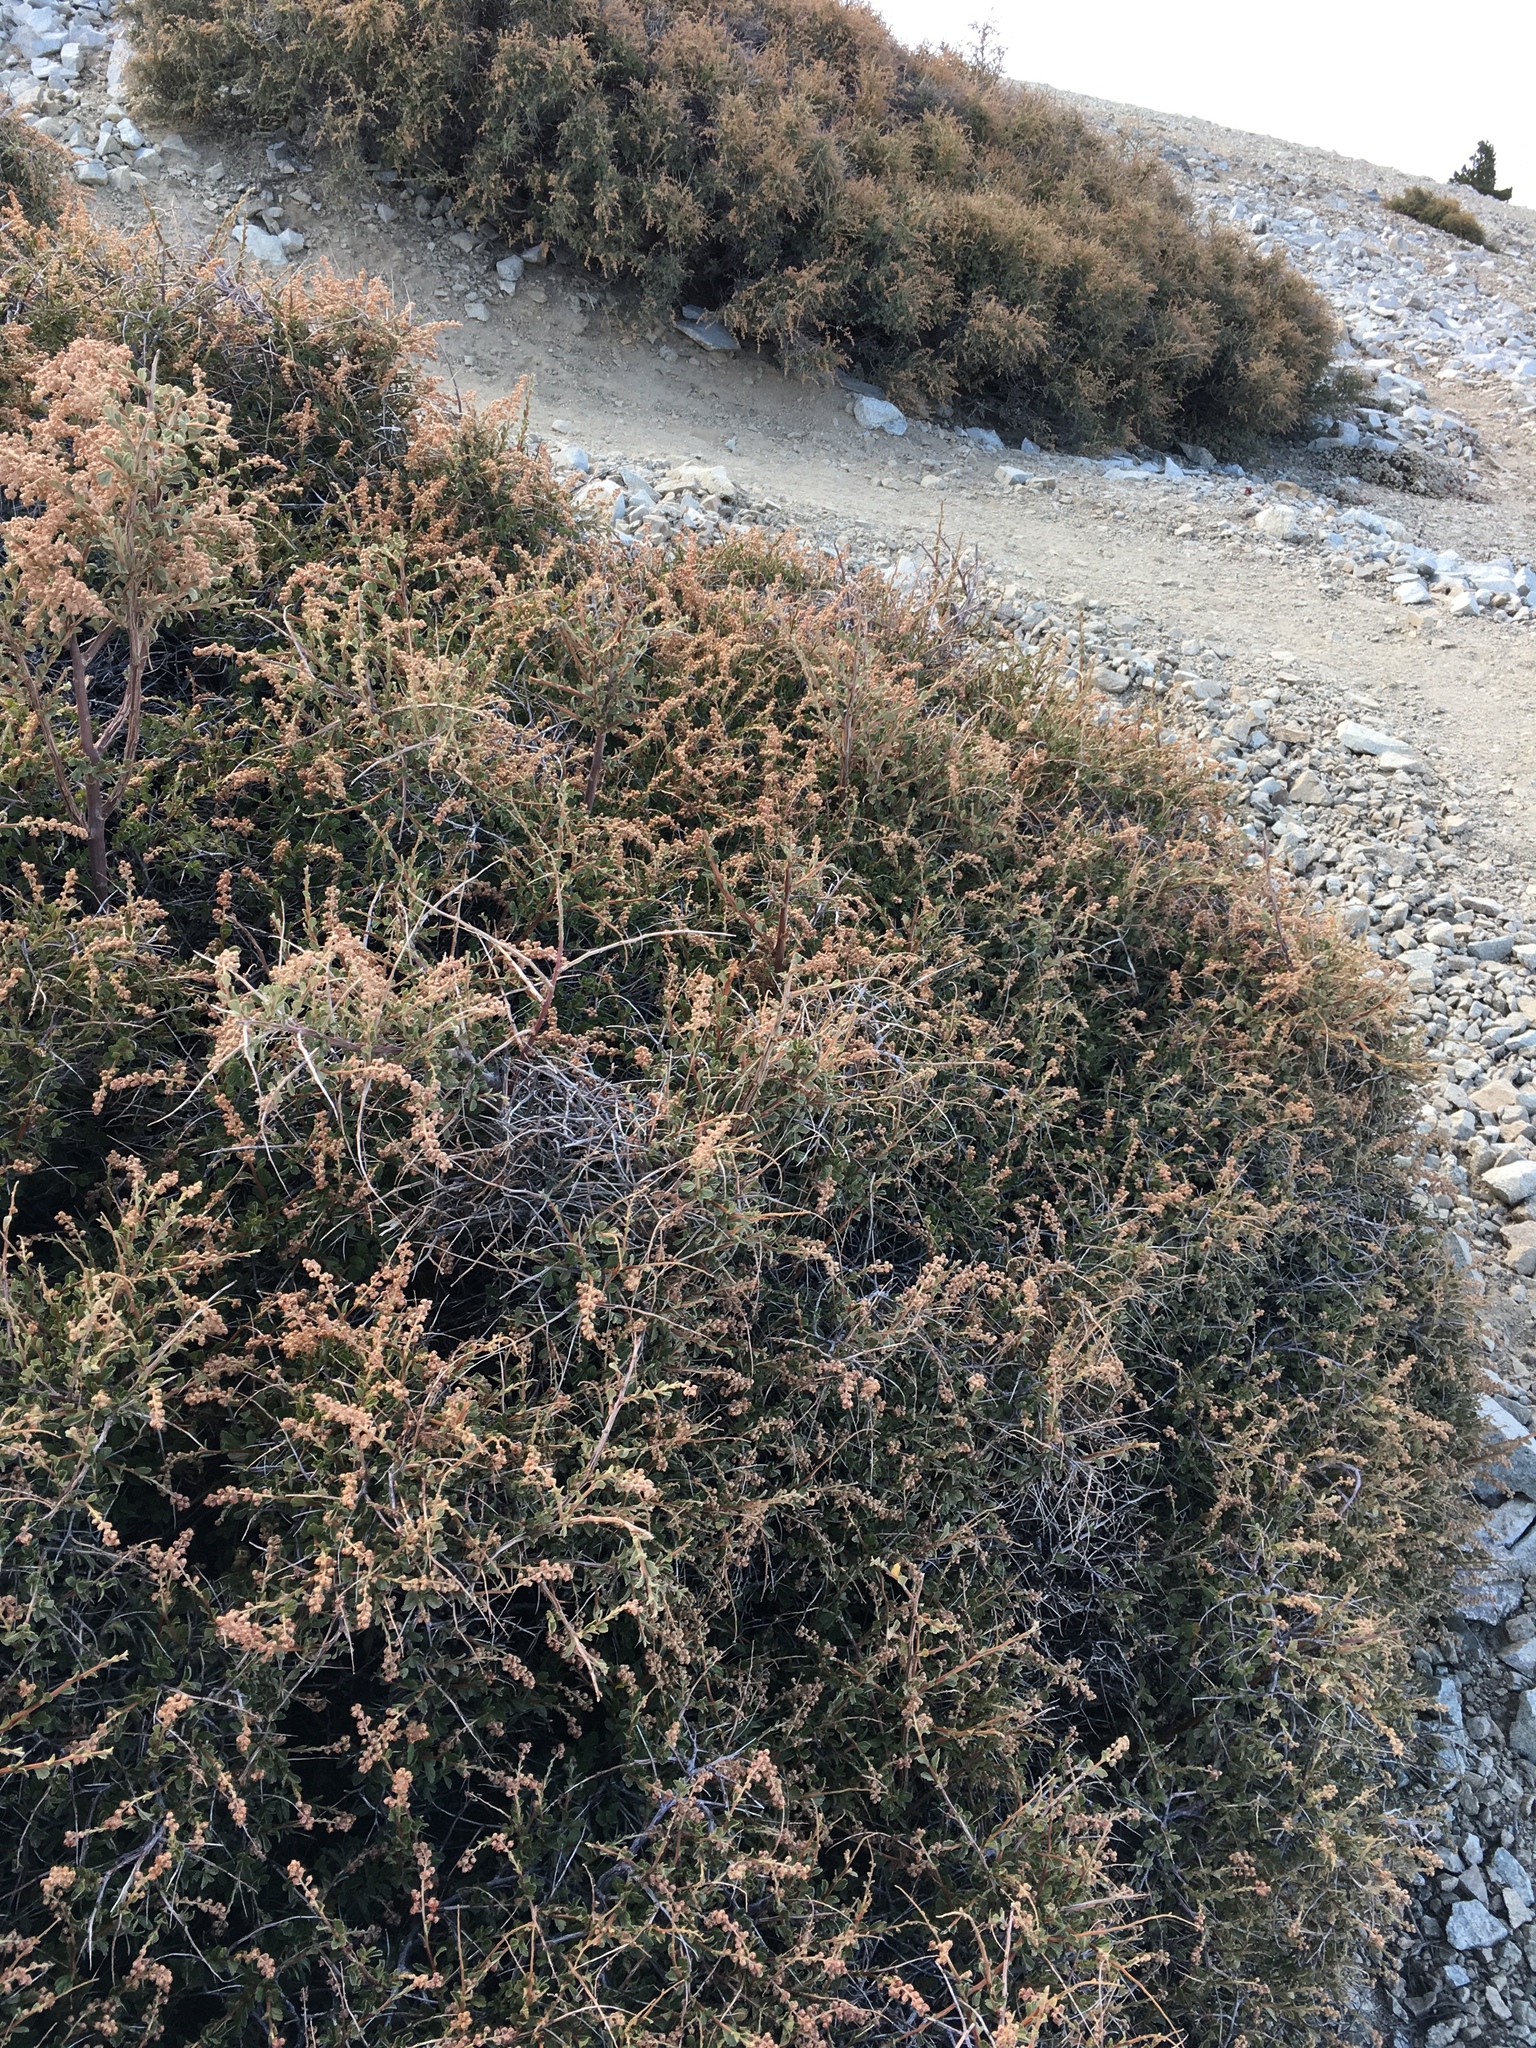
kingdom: Plantae
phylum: Tracheophyta
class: Magnoliopsida
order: Rosales
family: Rosaceae
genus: Holodiscus
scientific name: Holodiscus discolor
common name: Oceanspray
